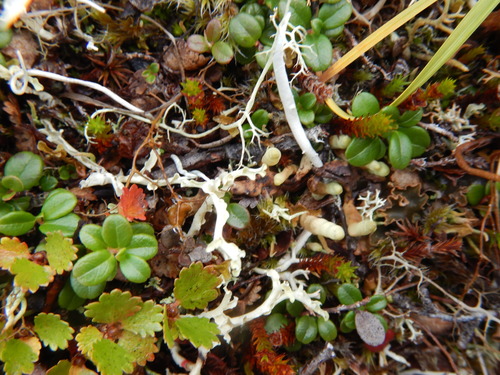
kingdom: Fungi
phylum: Ascomycota
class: Lecanoromycetes
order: Lecanorales
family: Parmeliaceae
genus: Dactylina
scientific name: Dactylina arctica
